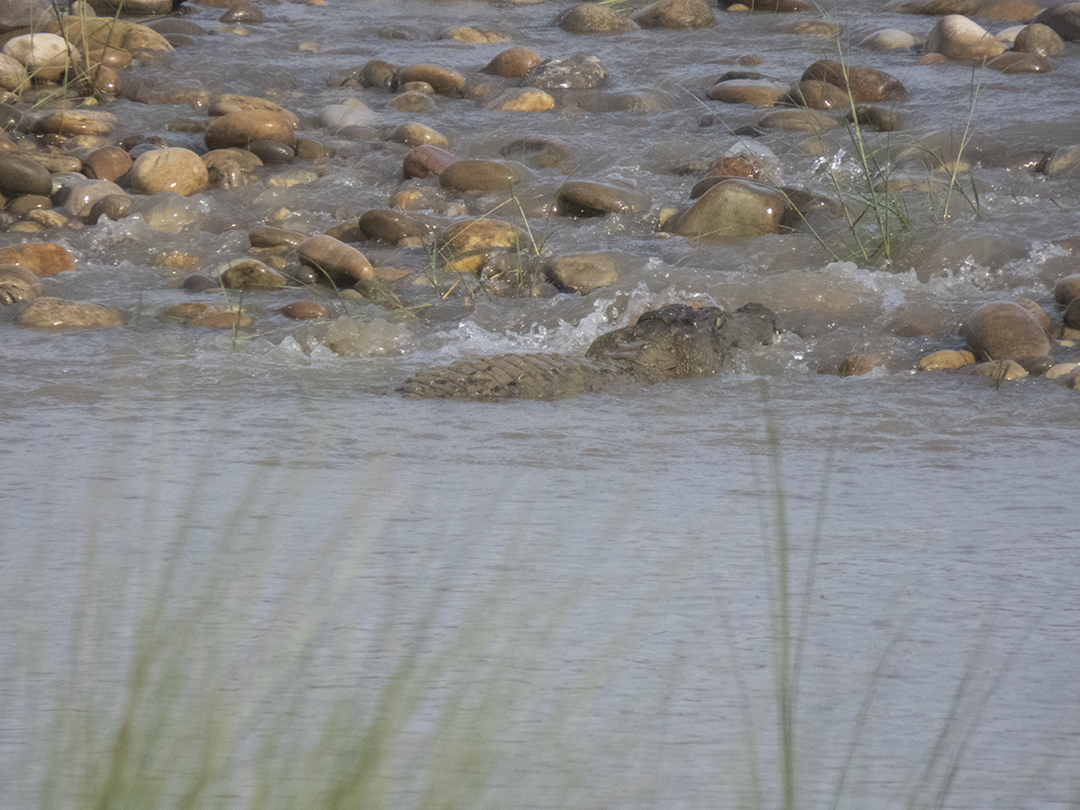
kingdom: Animalia
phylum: Chordata
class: Crocodylia
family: Crocodylidae
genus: Crocodylus
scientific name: Crocodylus palustris
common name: Mugger crocodile
